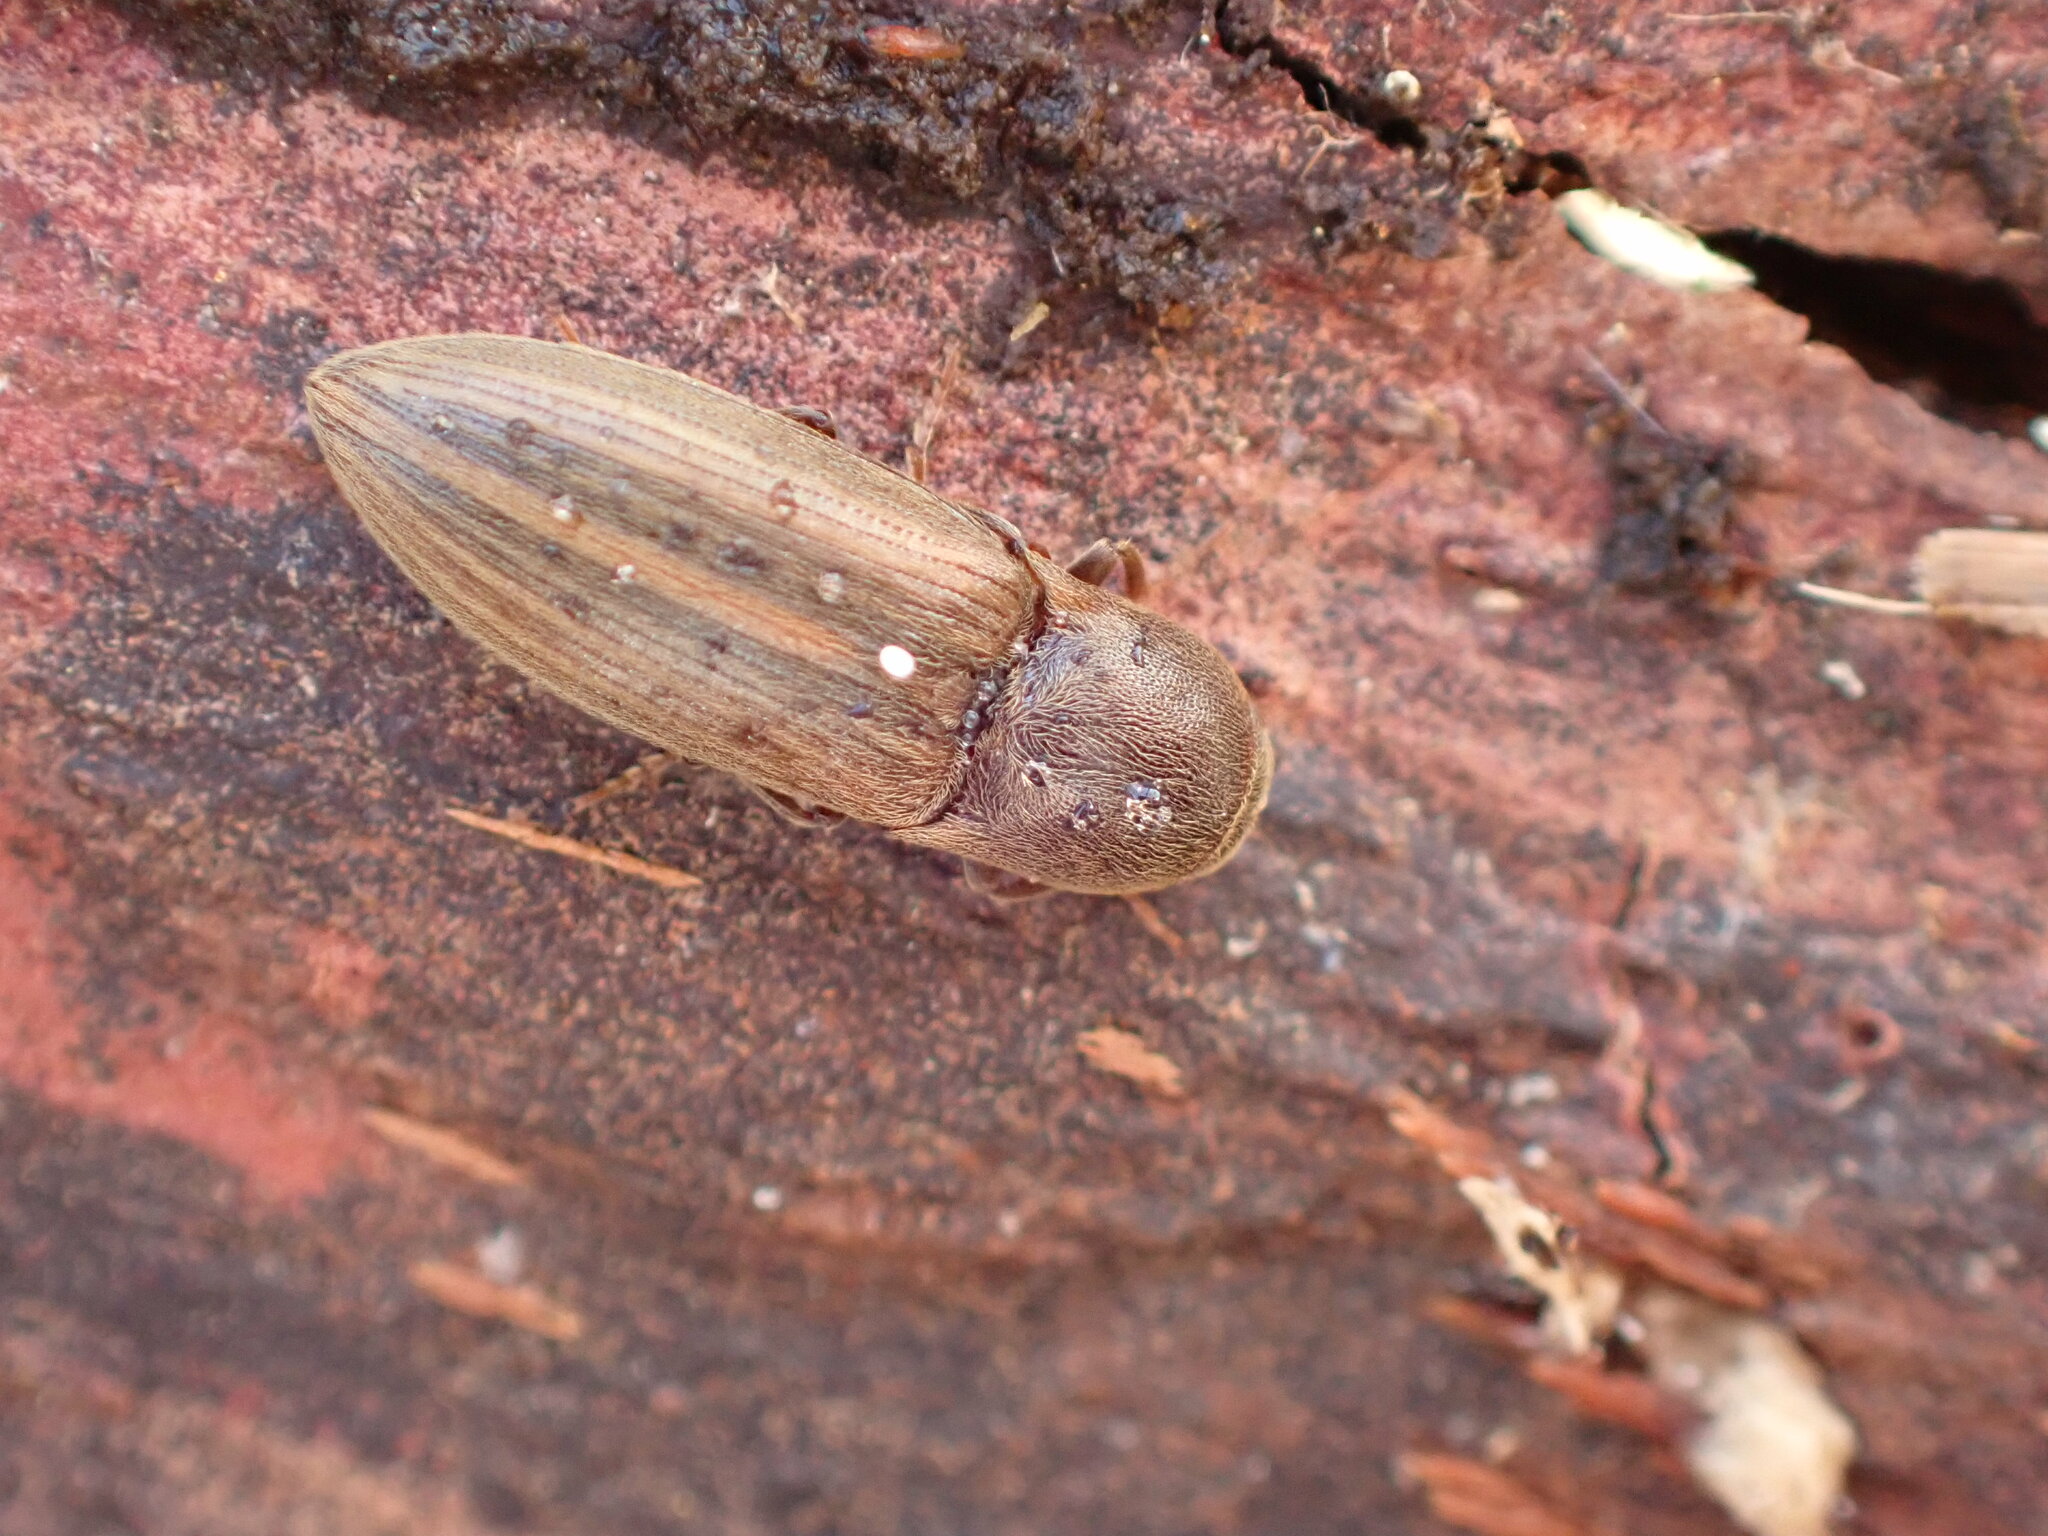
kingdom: Animalia
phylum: Arthropoda
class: Insecta
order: Coleoptera
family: Elateridae
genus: Agriotes
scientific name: Agriotes lineatus
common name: Lined click beetle
